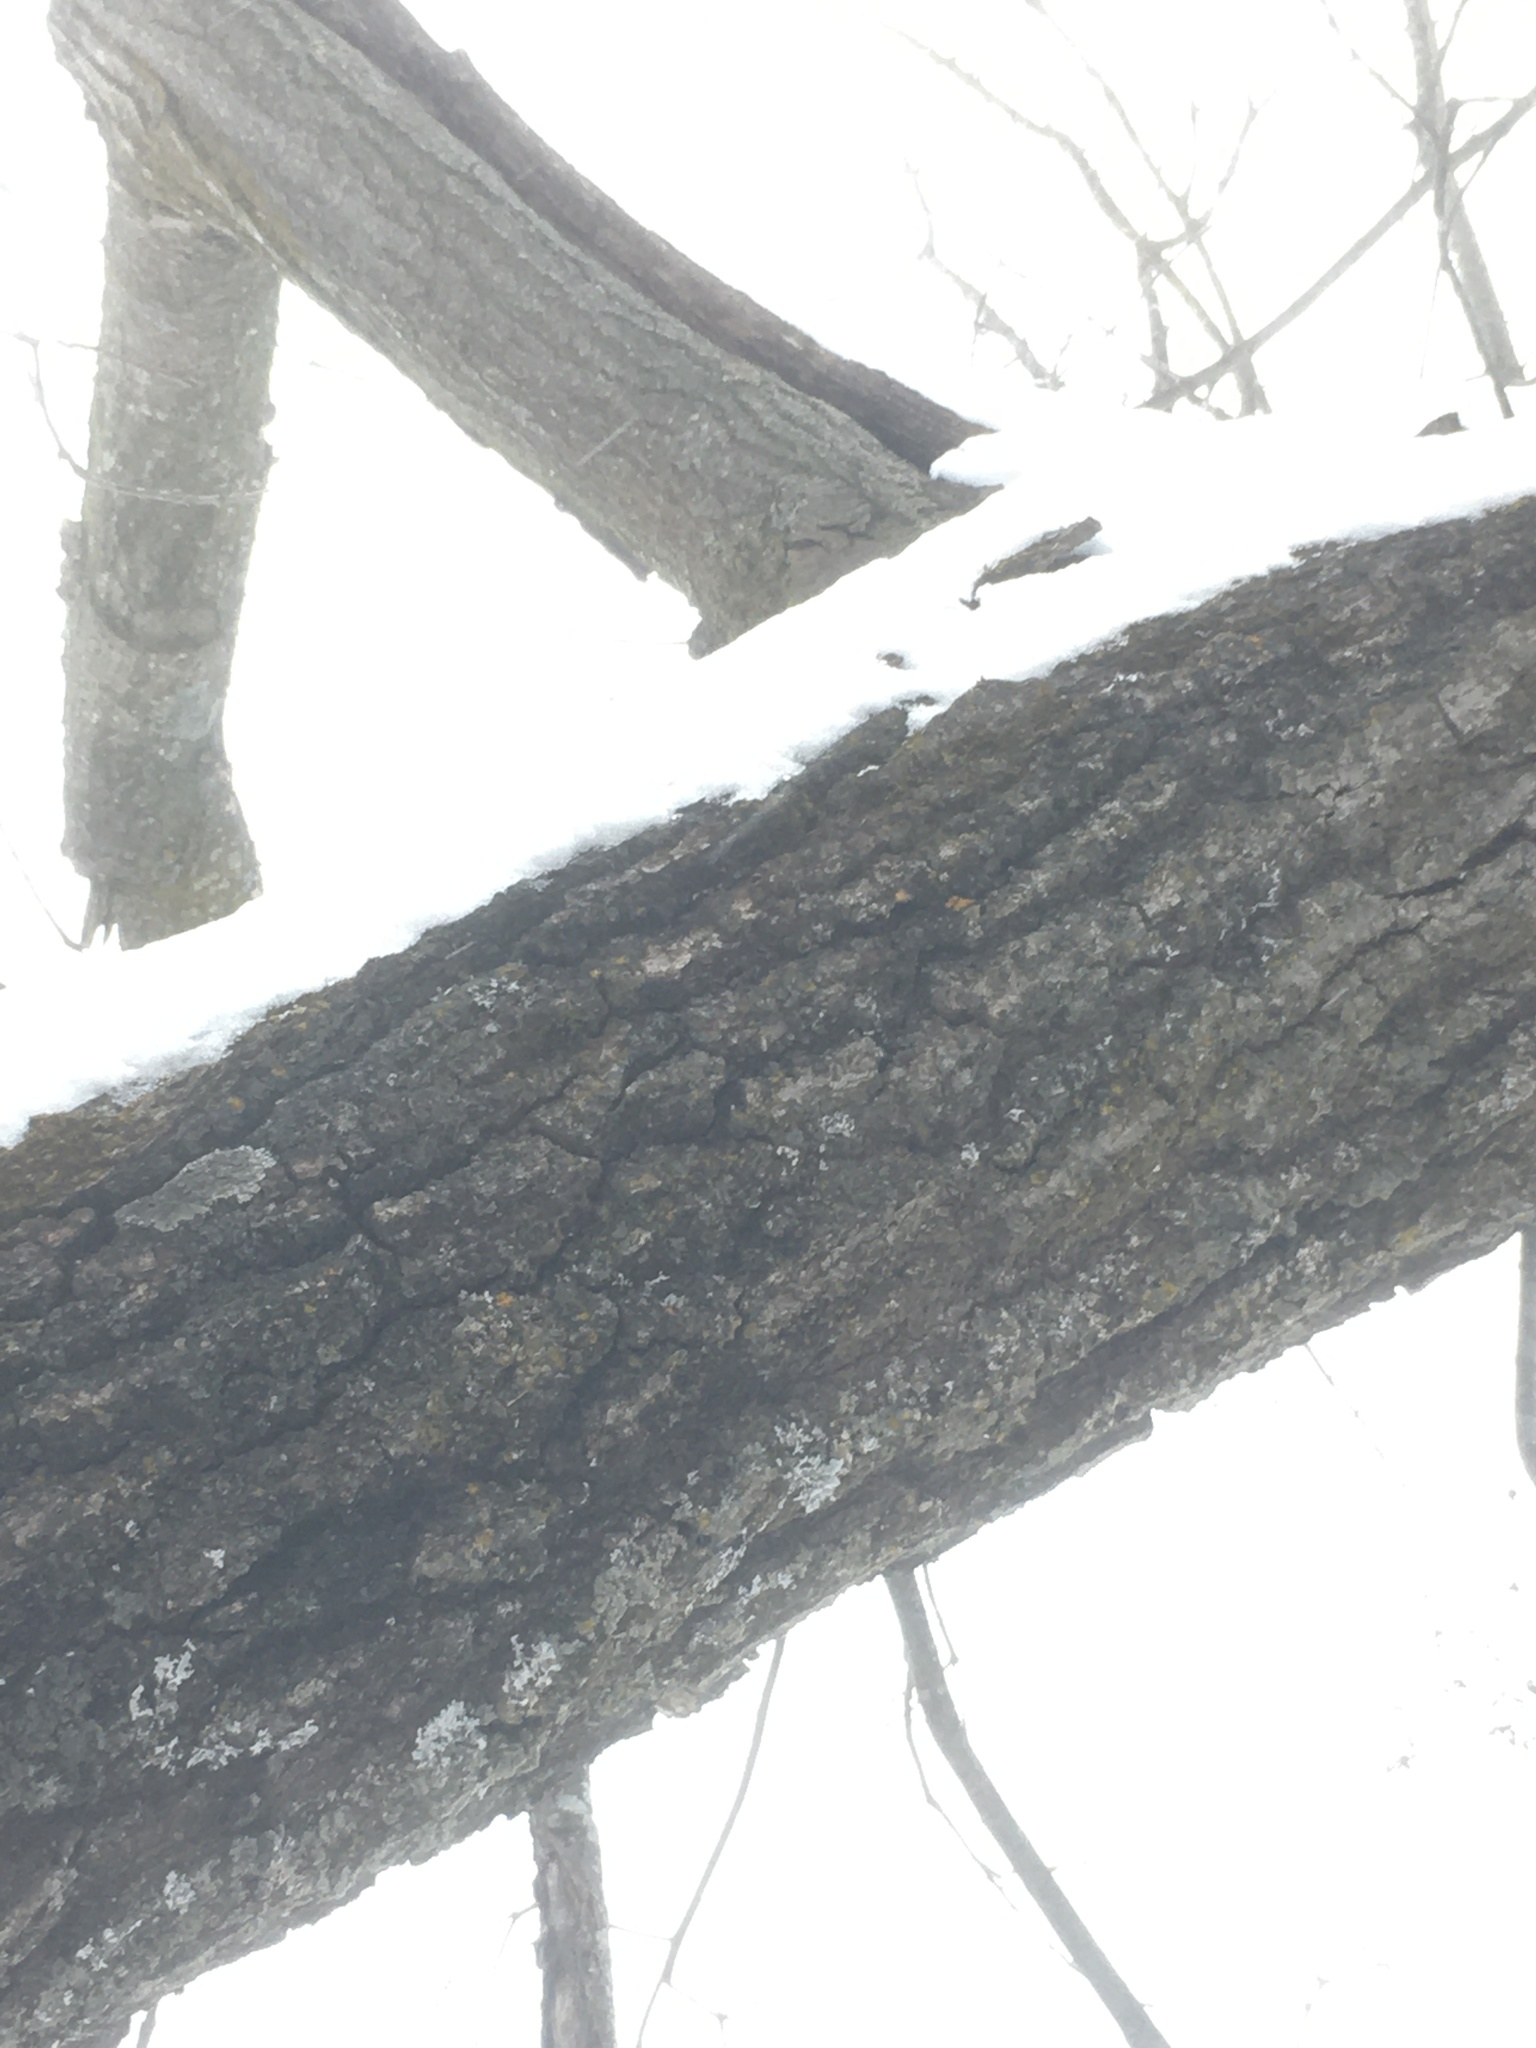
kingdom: Plantae
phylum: Tracheophyta
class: Magnoliopsida
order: Fagales
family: Fagaceae
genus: Quercus
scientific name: Quercus rubra
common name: Red oak
